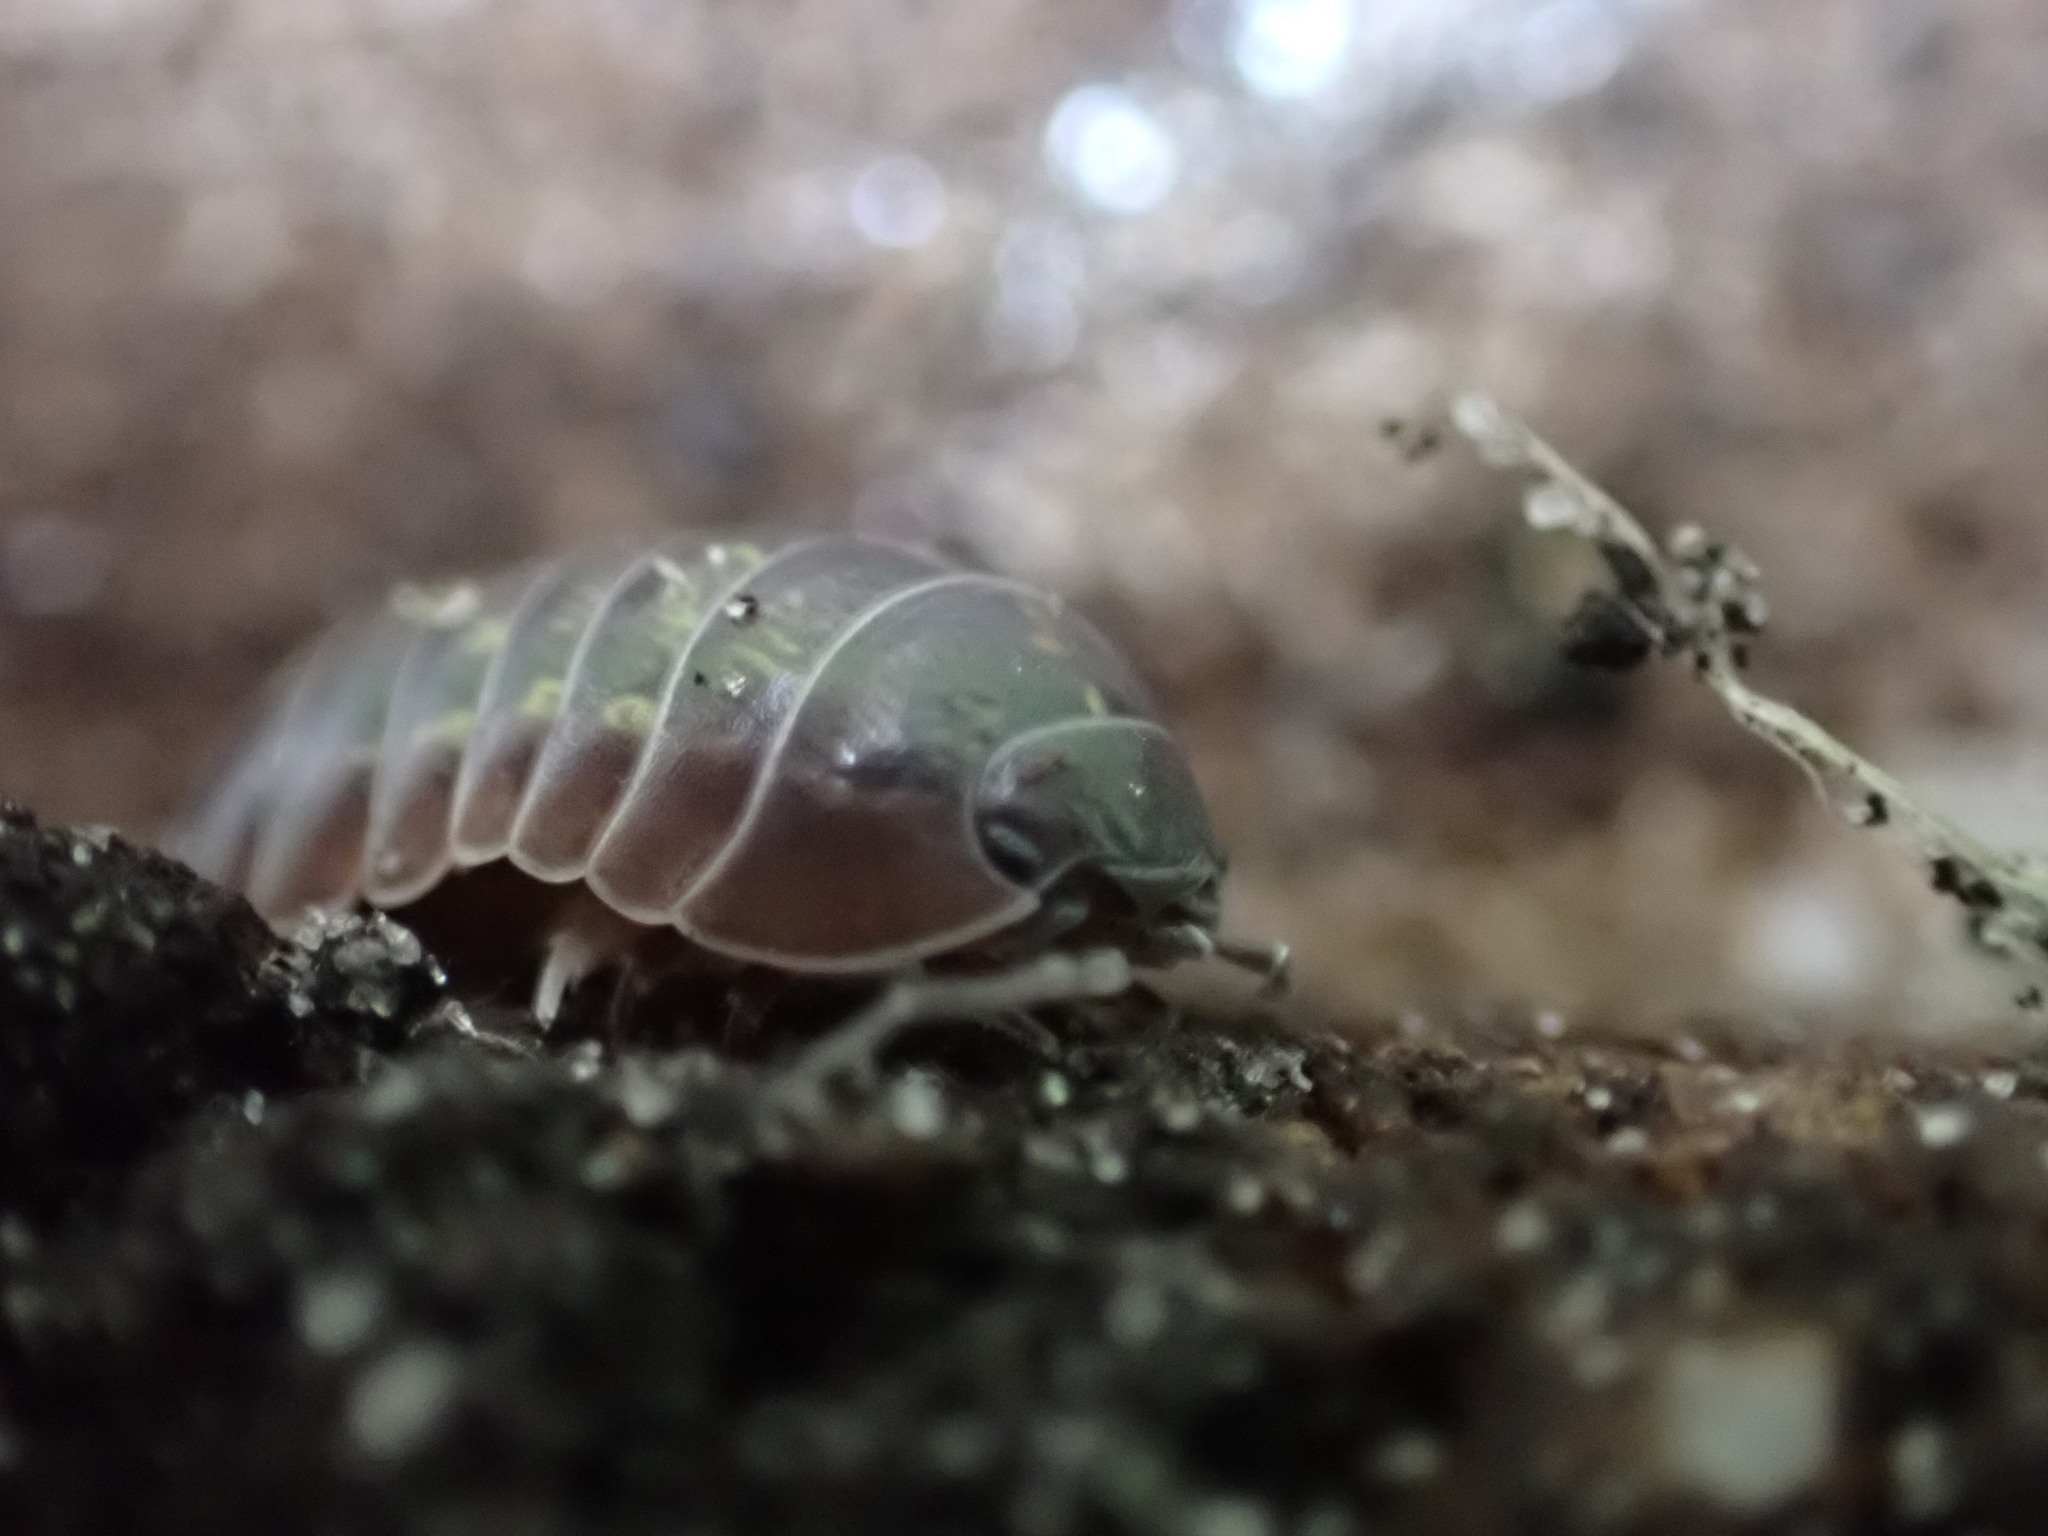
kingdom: Animalia
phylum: Arthropoda
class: Malacostraca
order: Isopoda
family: Armadillidiidae
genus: Armadillidium
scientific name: Armadillidium vulgare
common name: Common pill woodlouse
